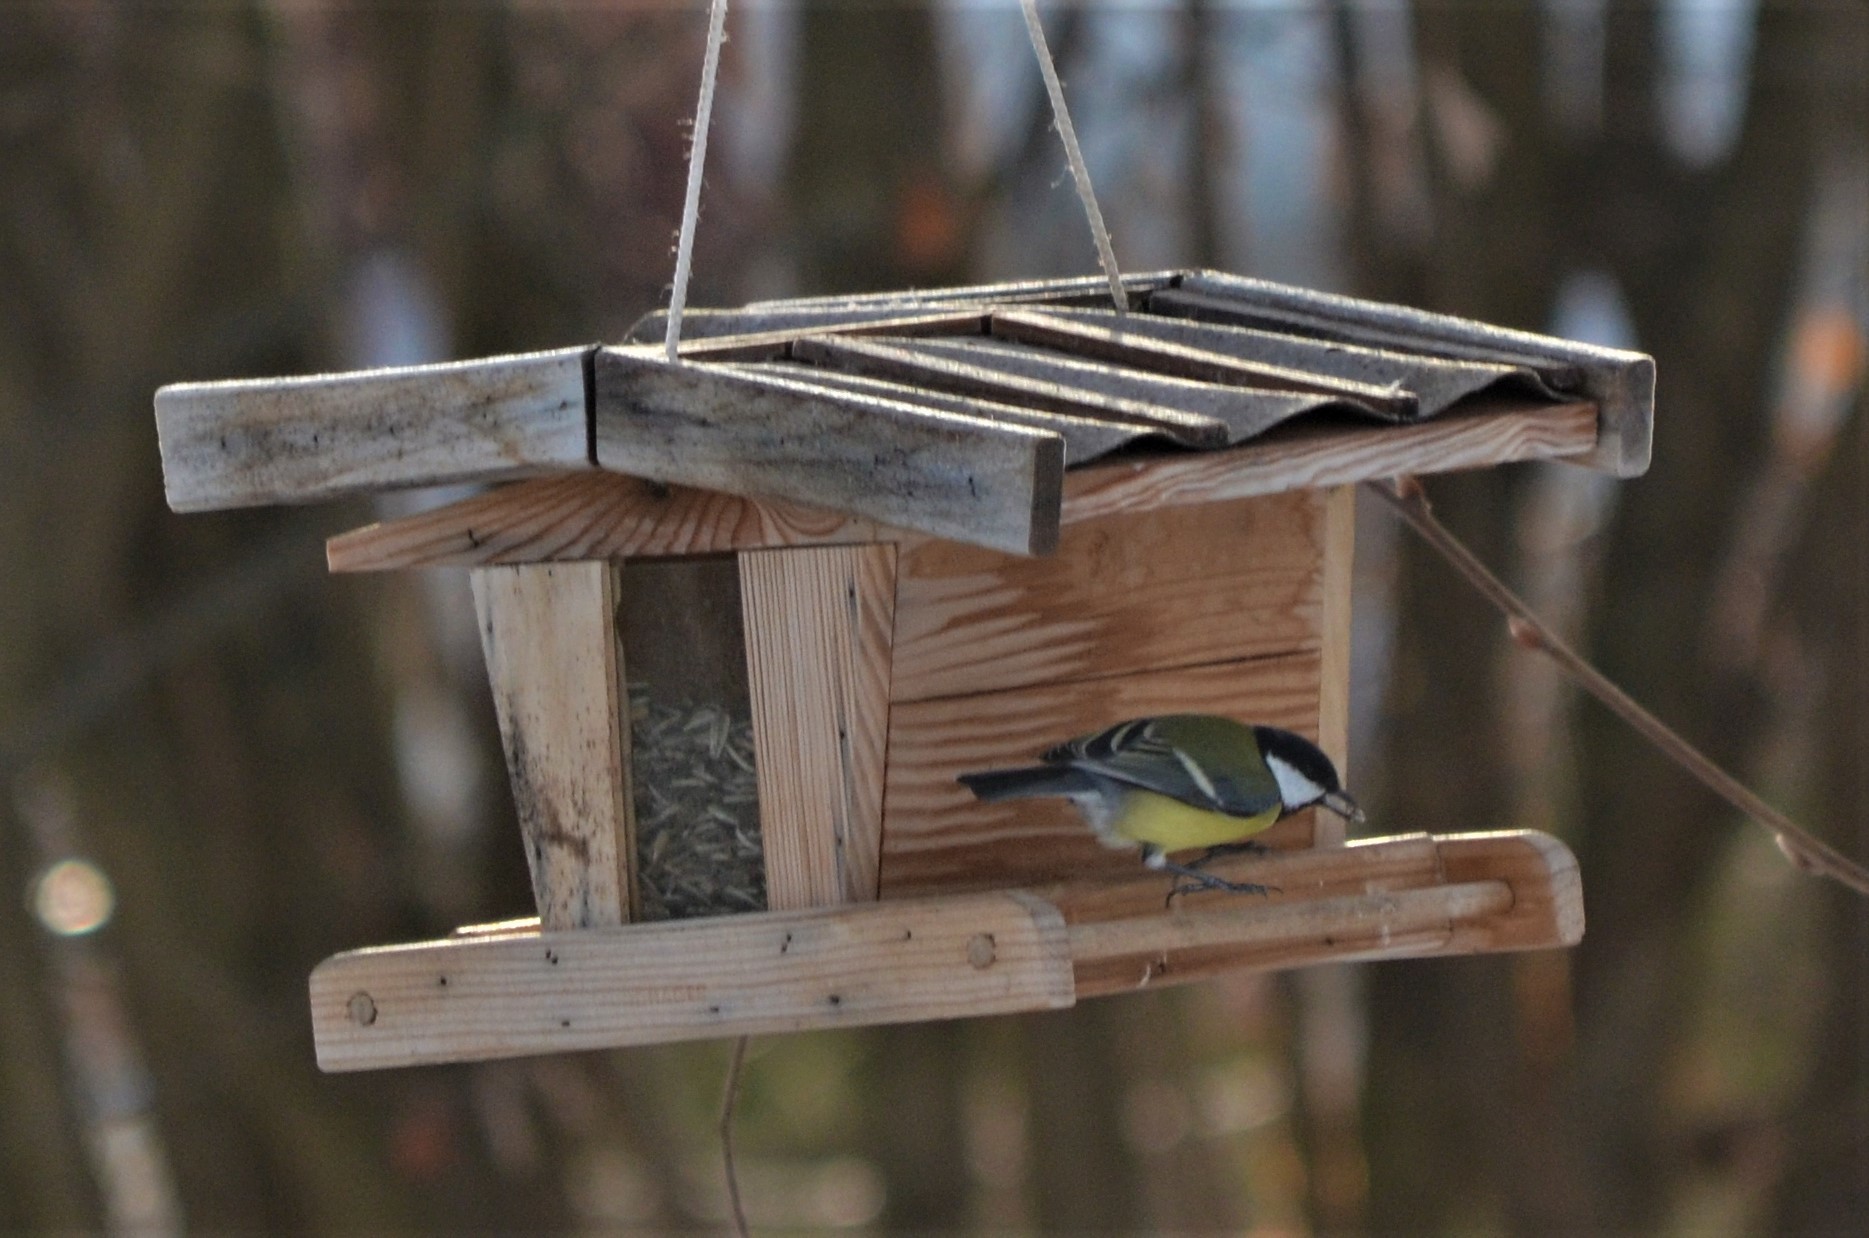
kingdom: Animalia
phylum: Chordata
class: Aves
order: Passeriformes
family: Paridae
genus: Parus
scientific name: Parus major
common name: Great tit
